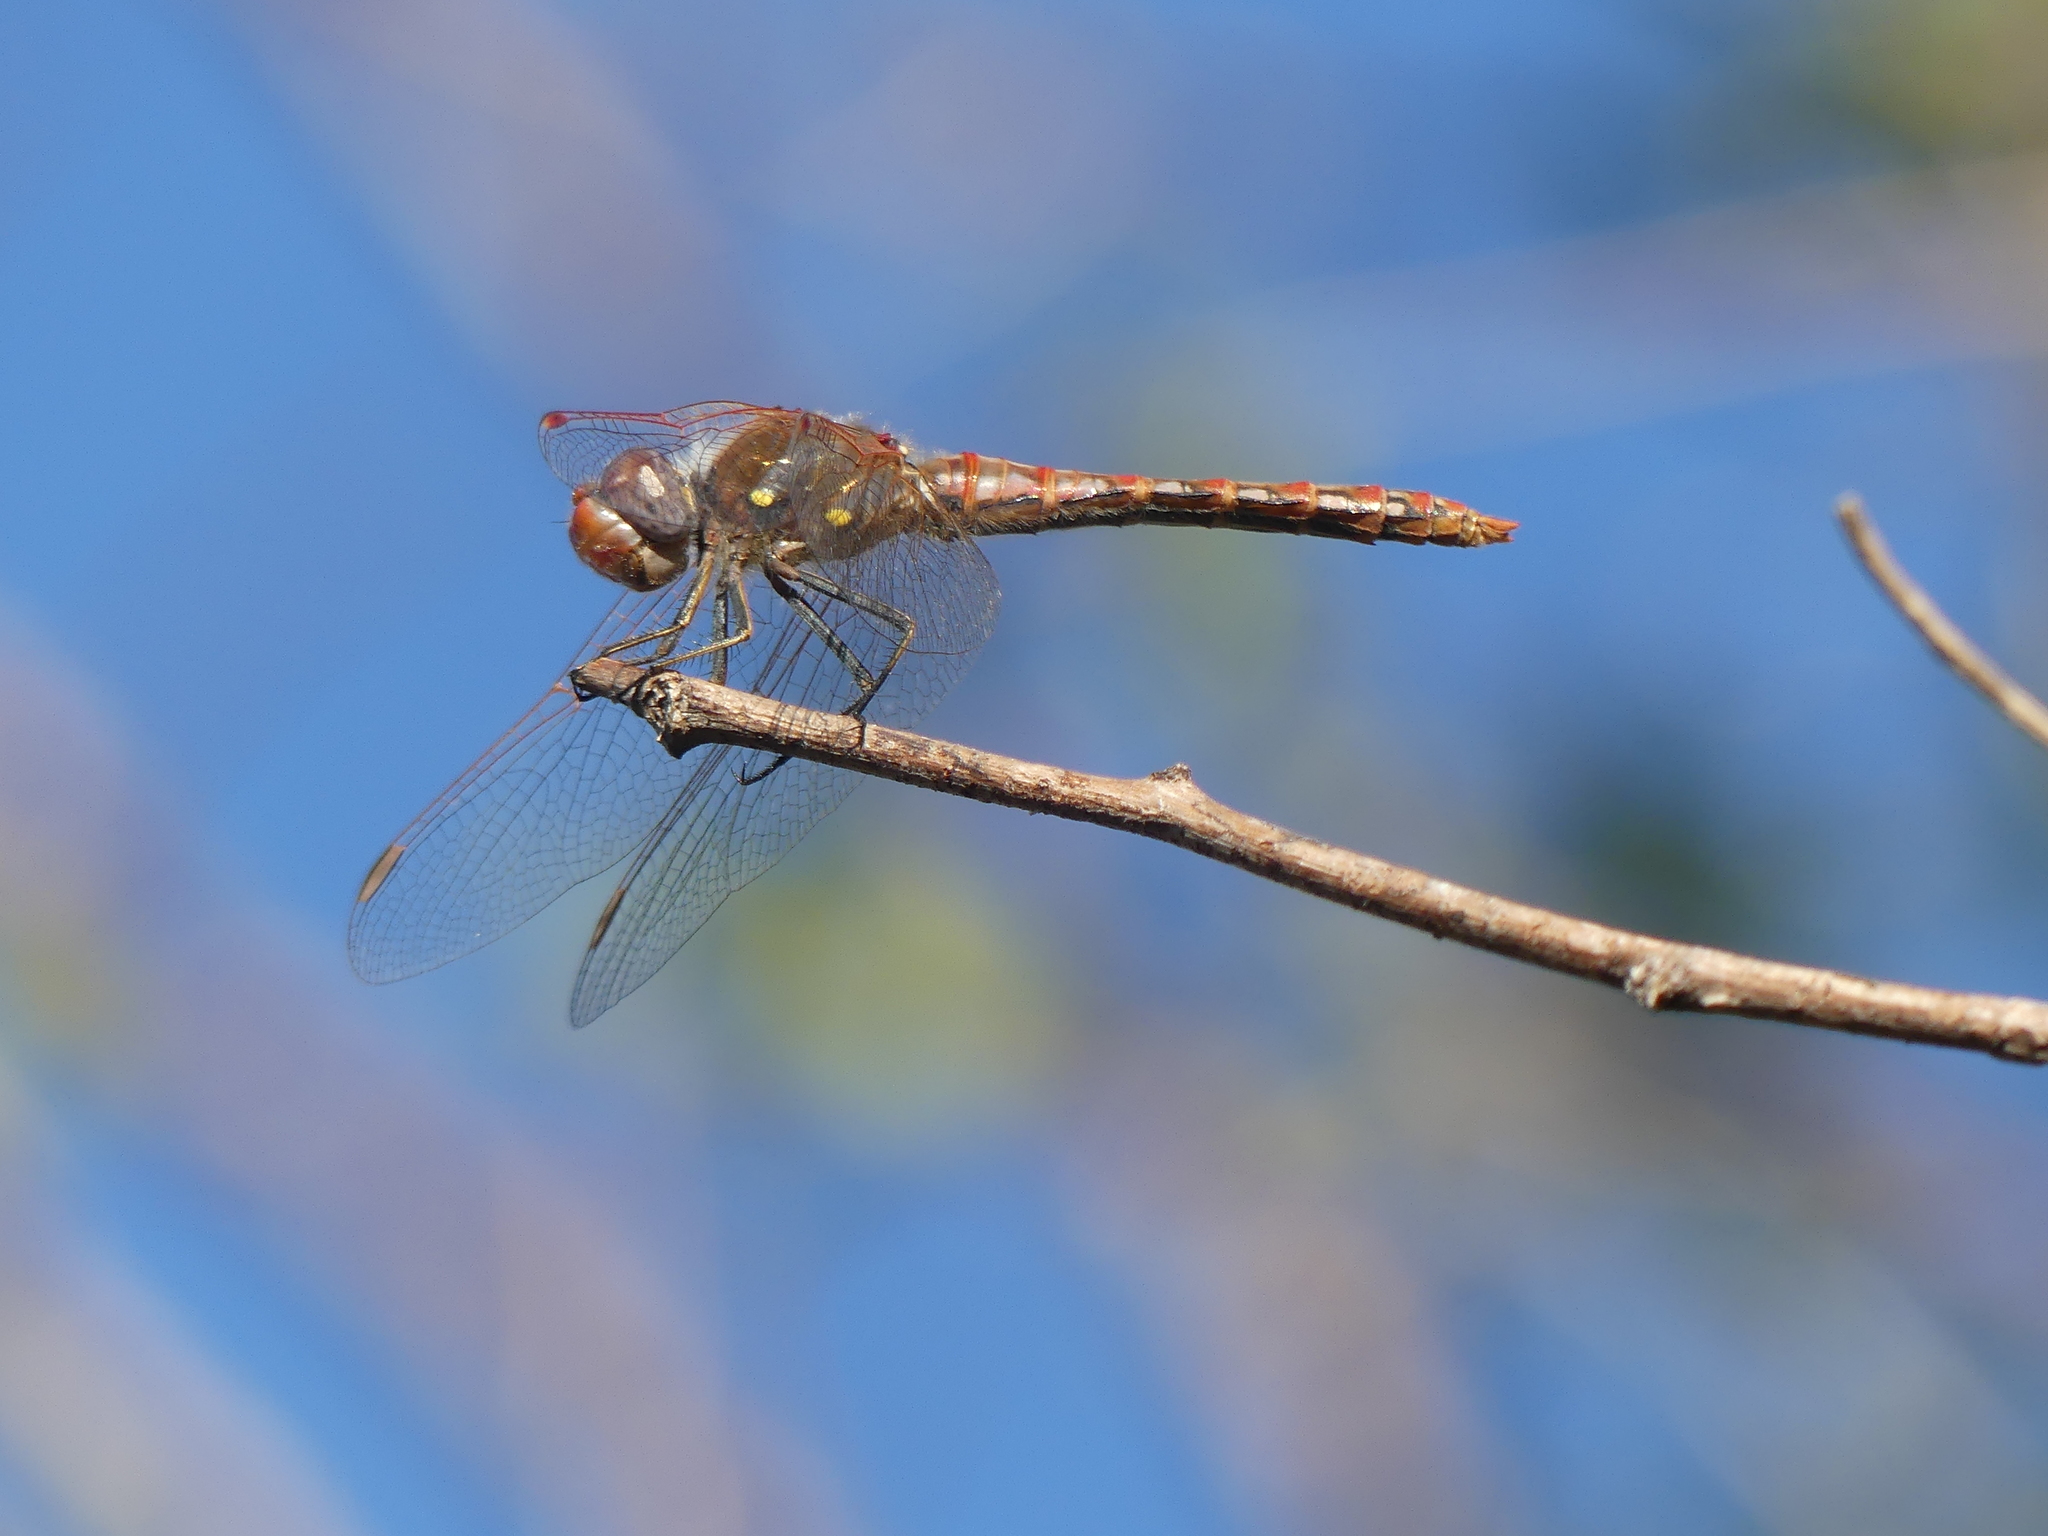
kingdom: Animalia
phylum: Arthropoda
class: Insecta
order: Odonata
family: Libellulidae
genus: Sympetrum
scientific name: Sympetrum corruptum
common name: Variegated meadowhawk
